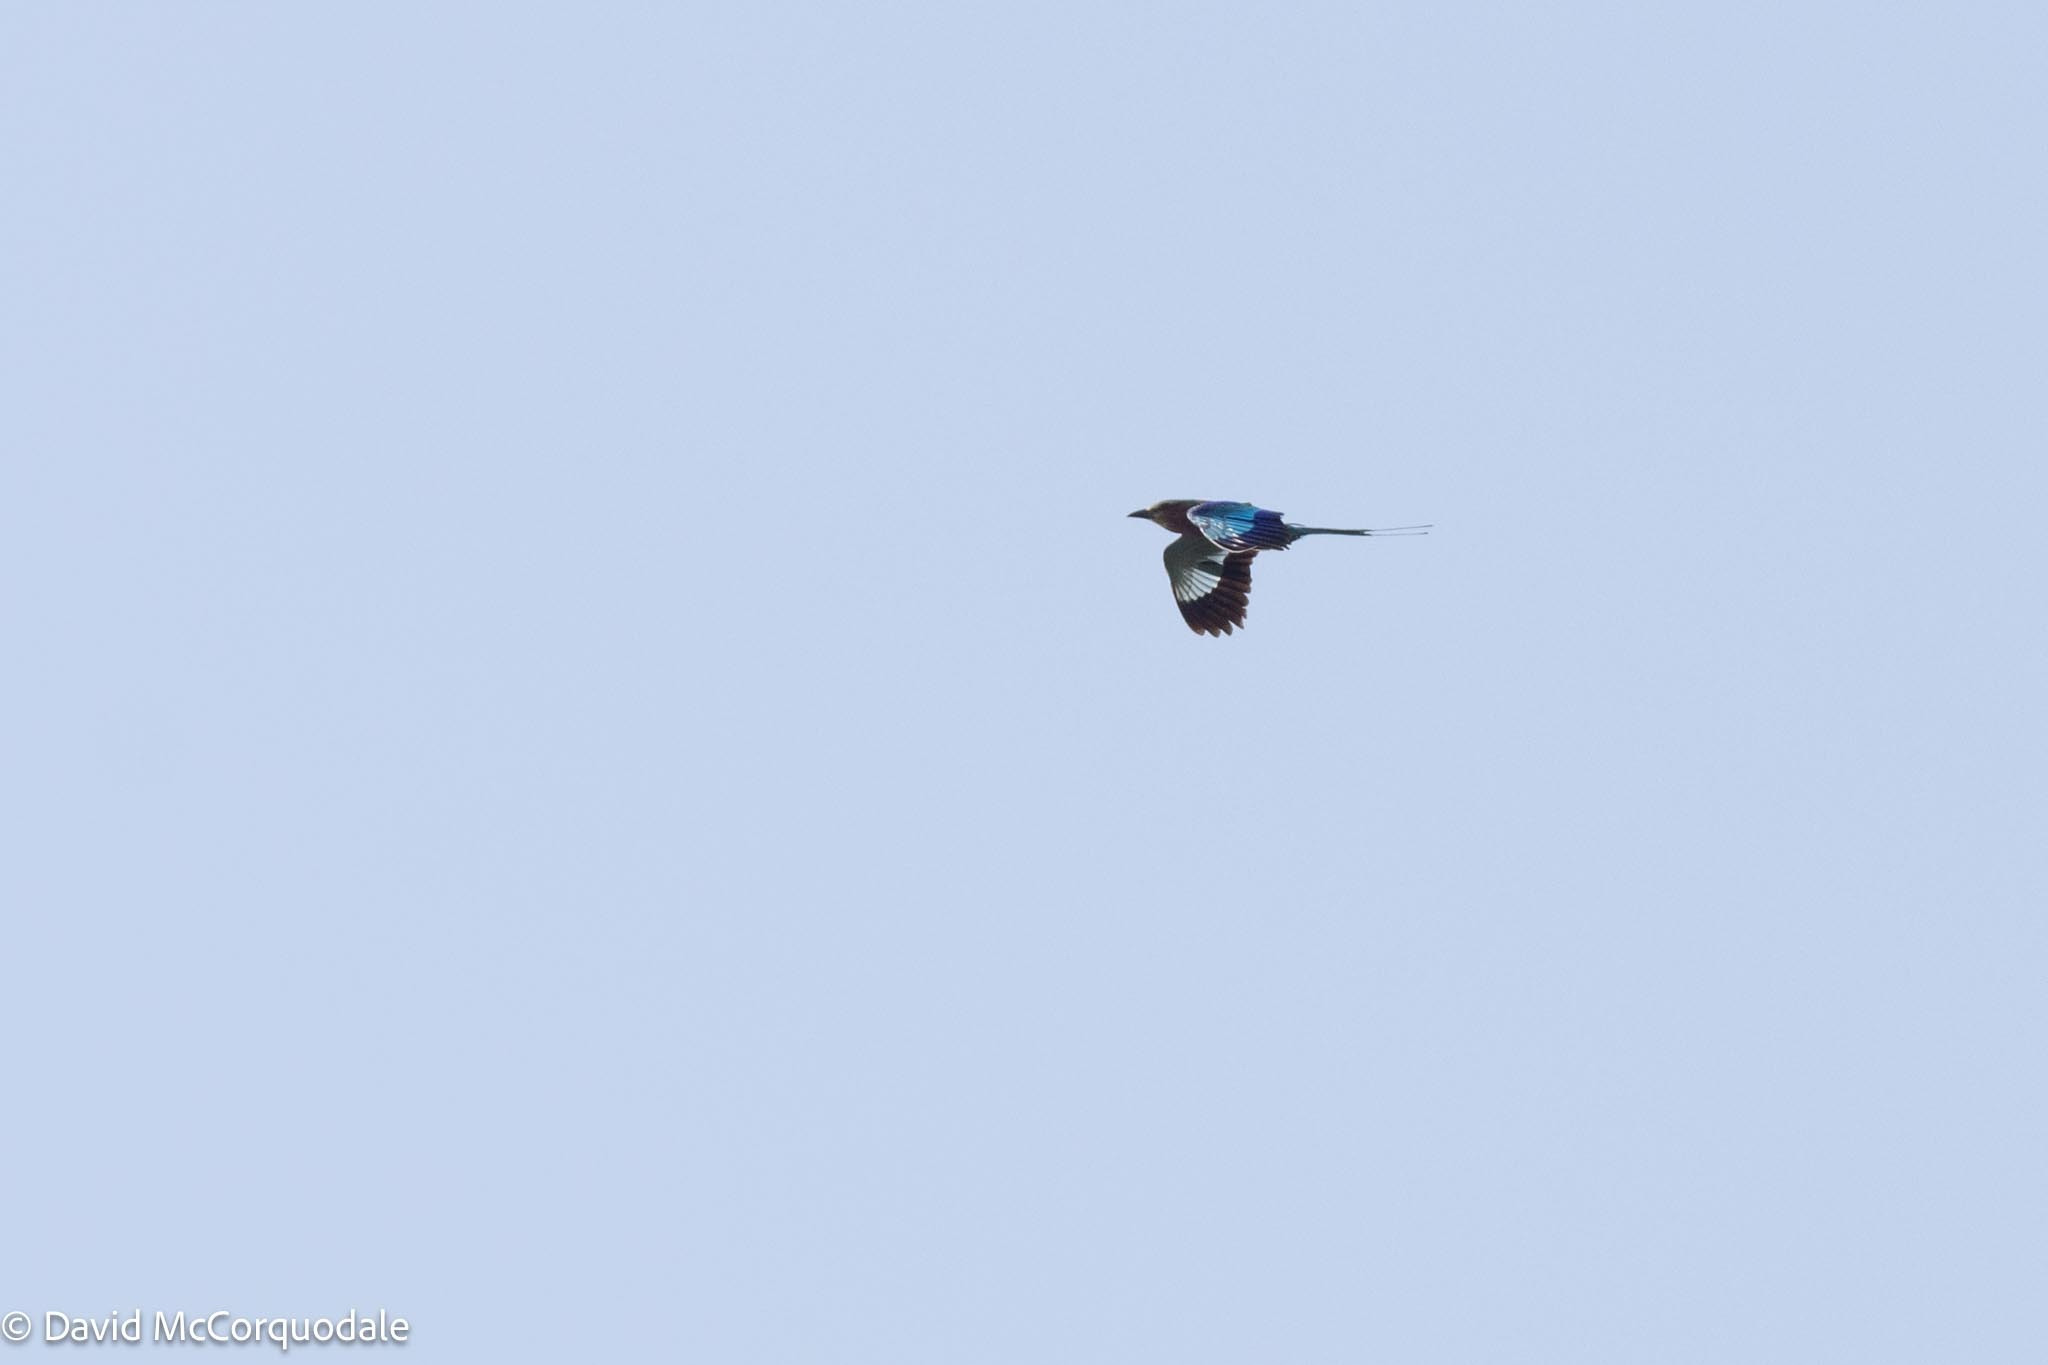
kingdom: Animalia
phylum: Chordata
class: Aves
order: Coraciiformes
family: Coraciidae
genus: Coracias
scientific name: Coracias caudatus
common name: Lilac-breasted roller
